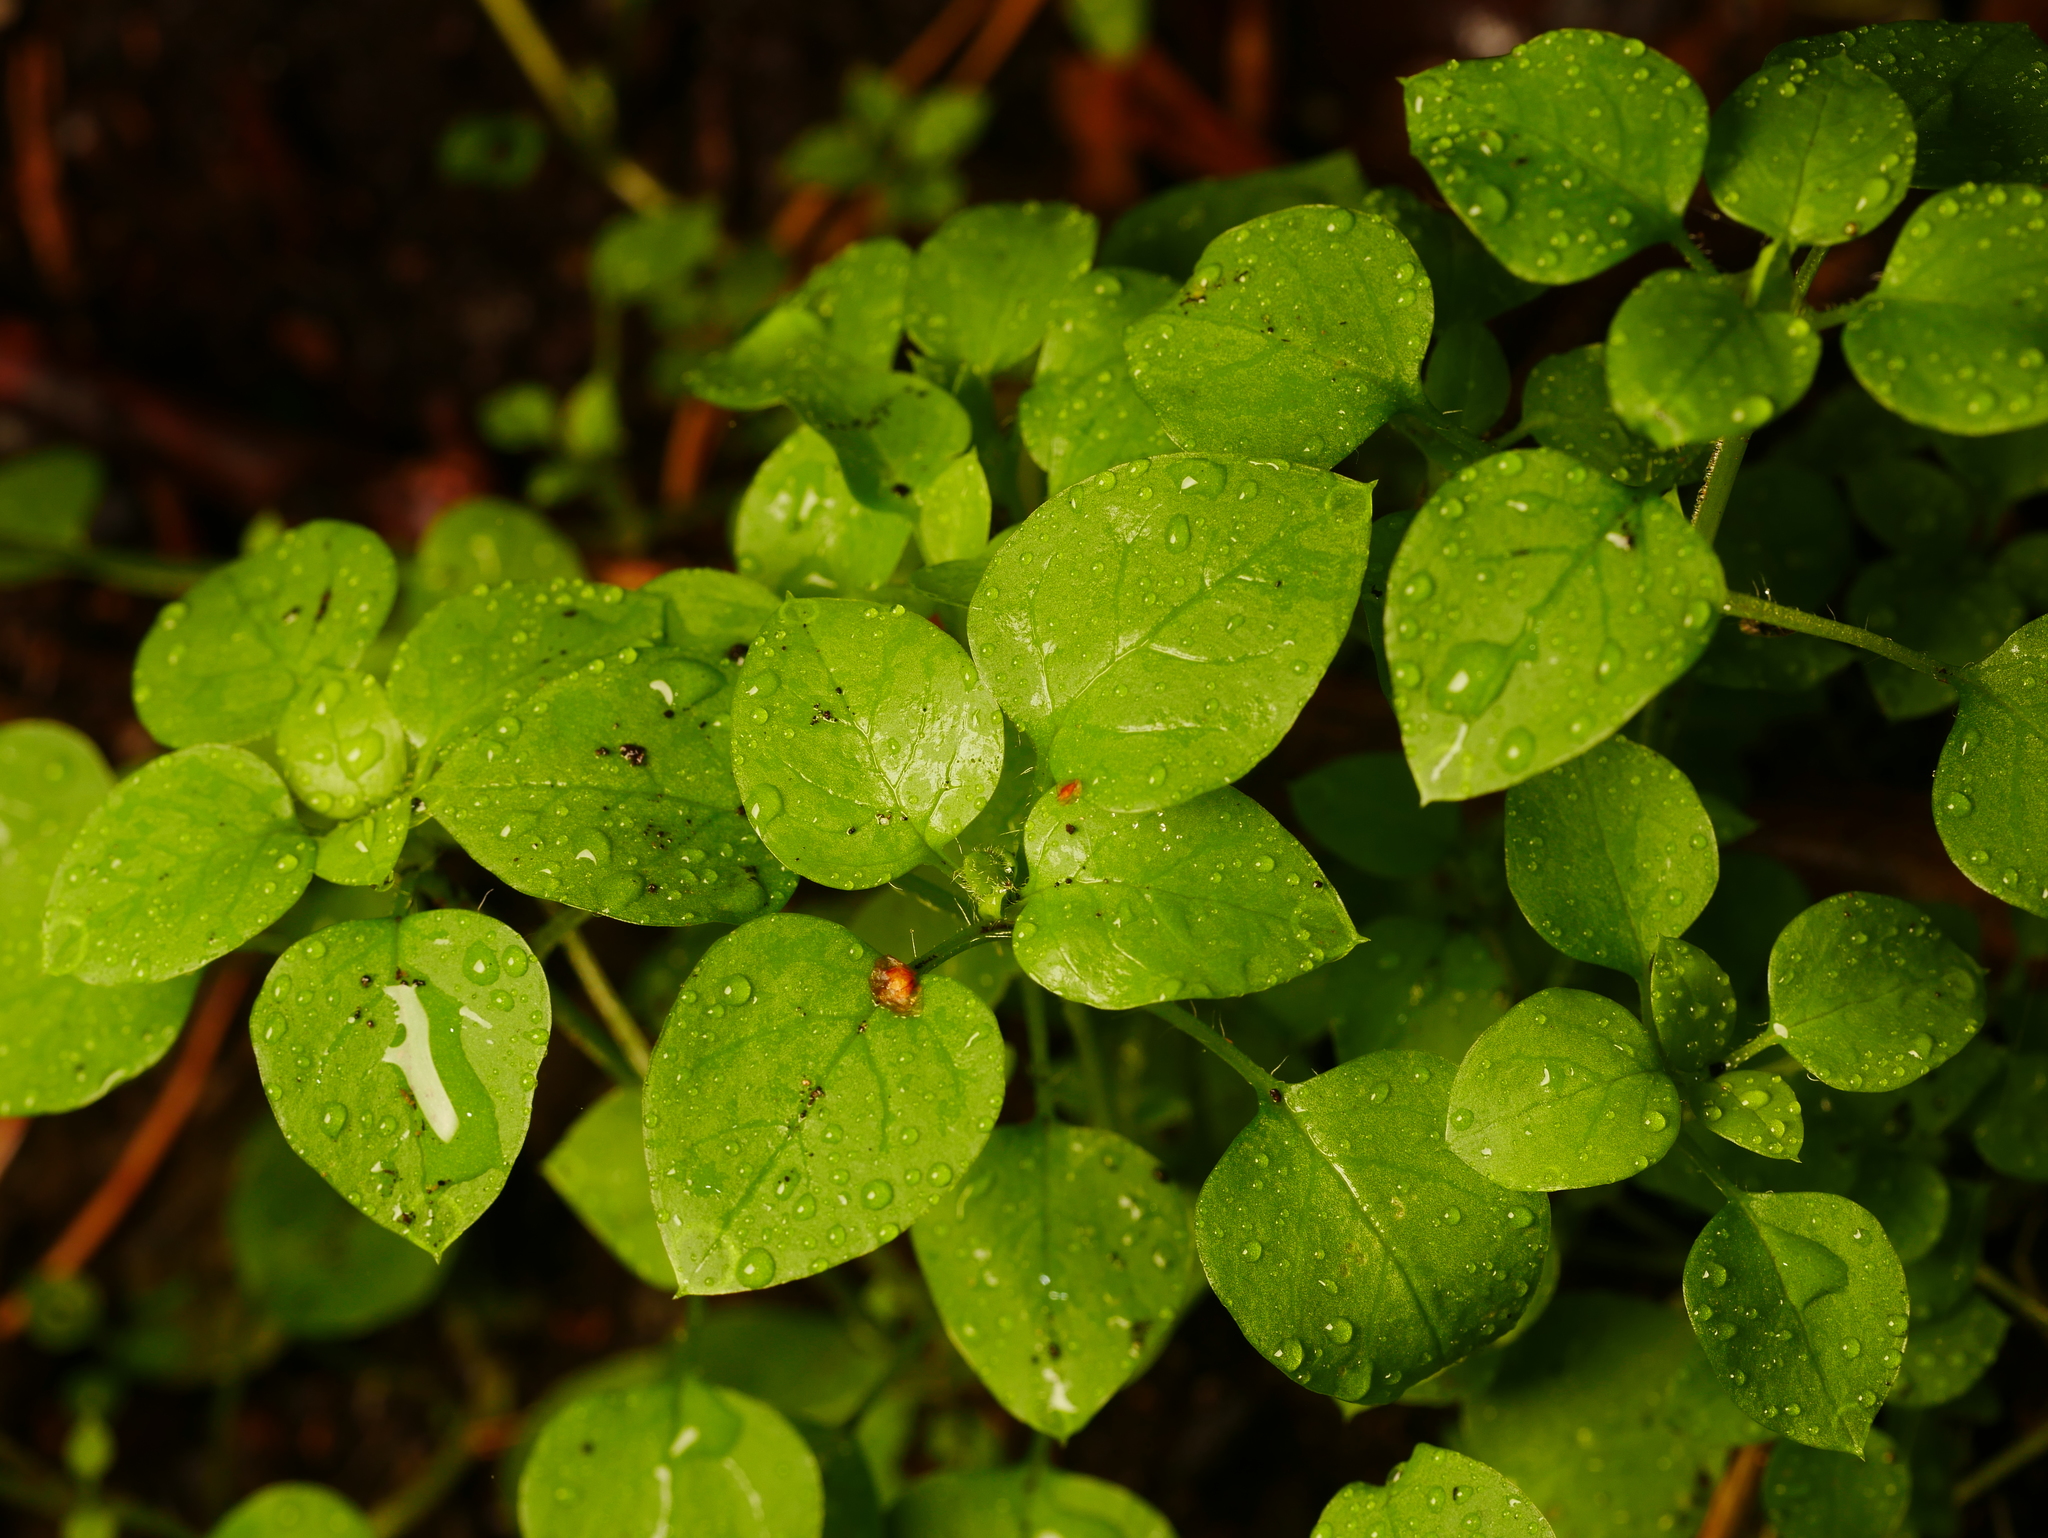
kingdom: Plantae
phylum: Tracheophyta
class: Magnoliopsida
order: Caryophyllales
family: Caryophyllaceae
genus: Stellaria
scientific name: Stellaria media
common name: Common chickweed
